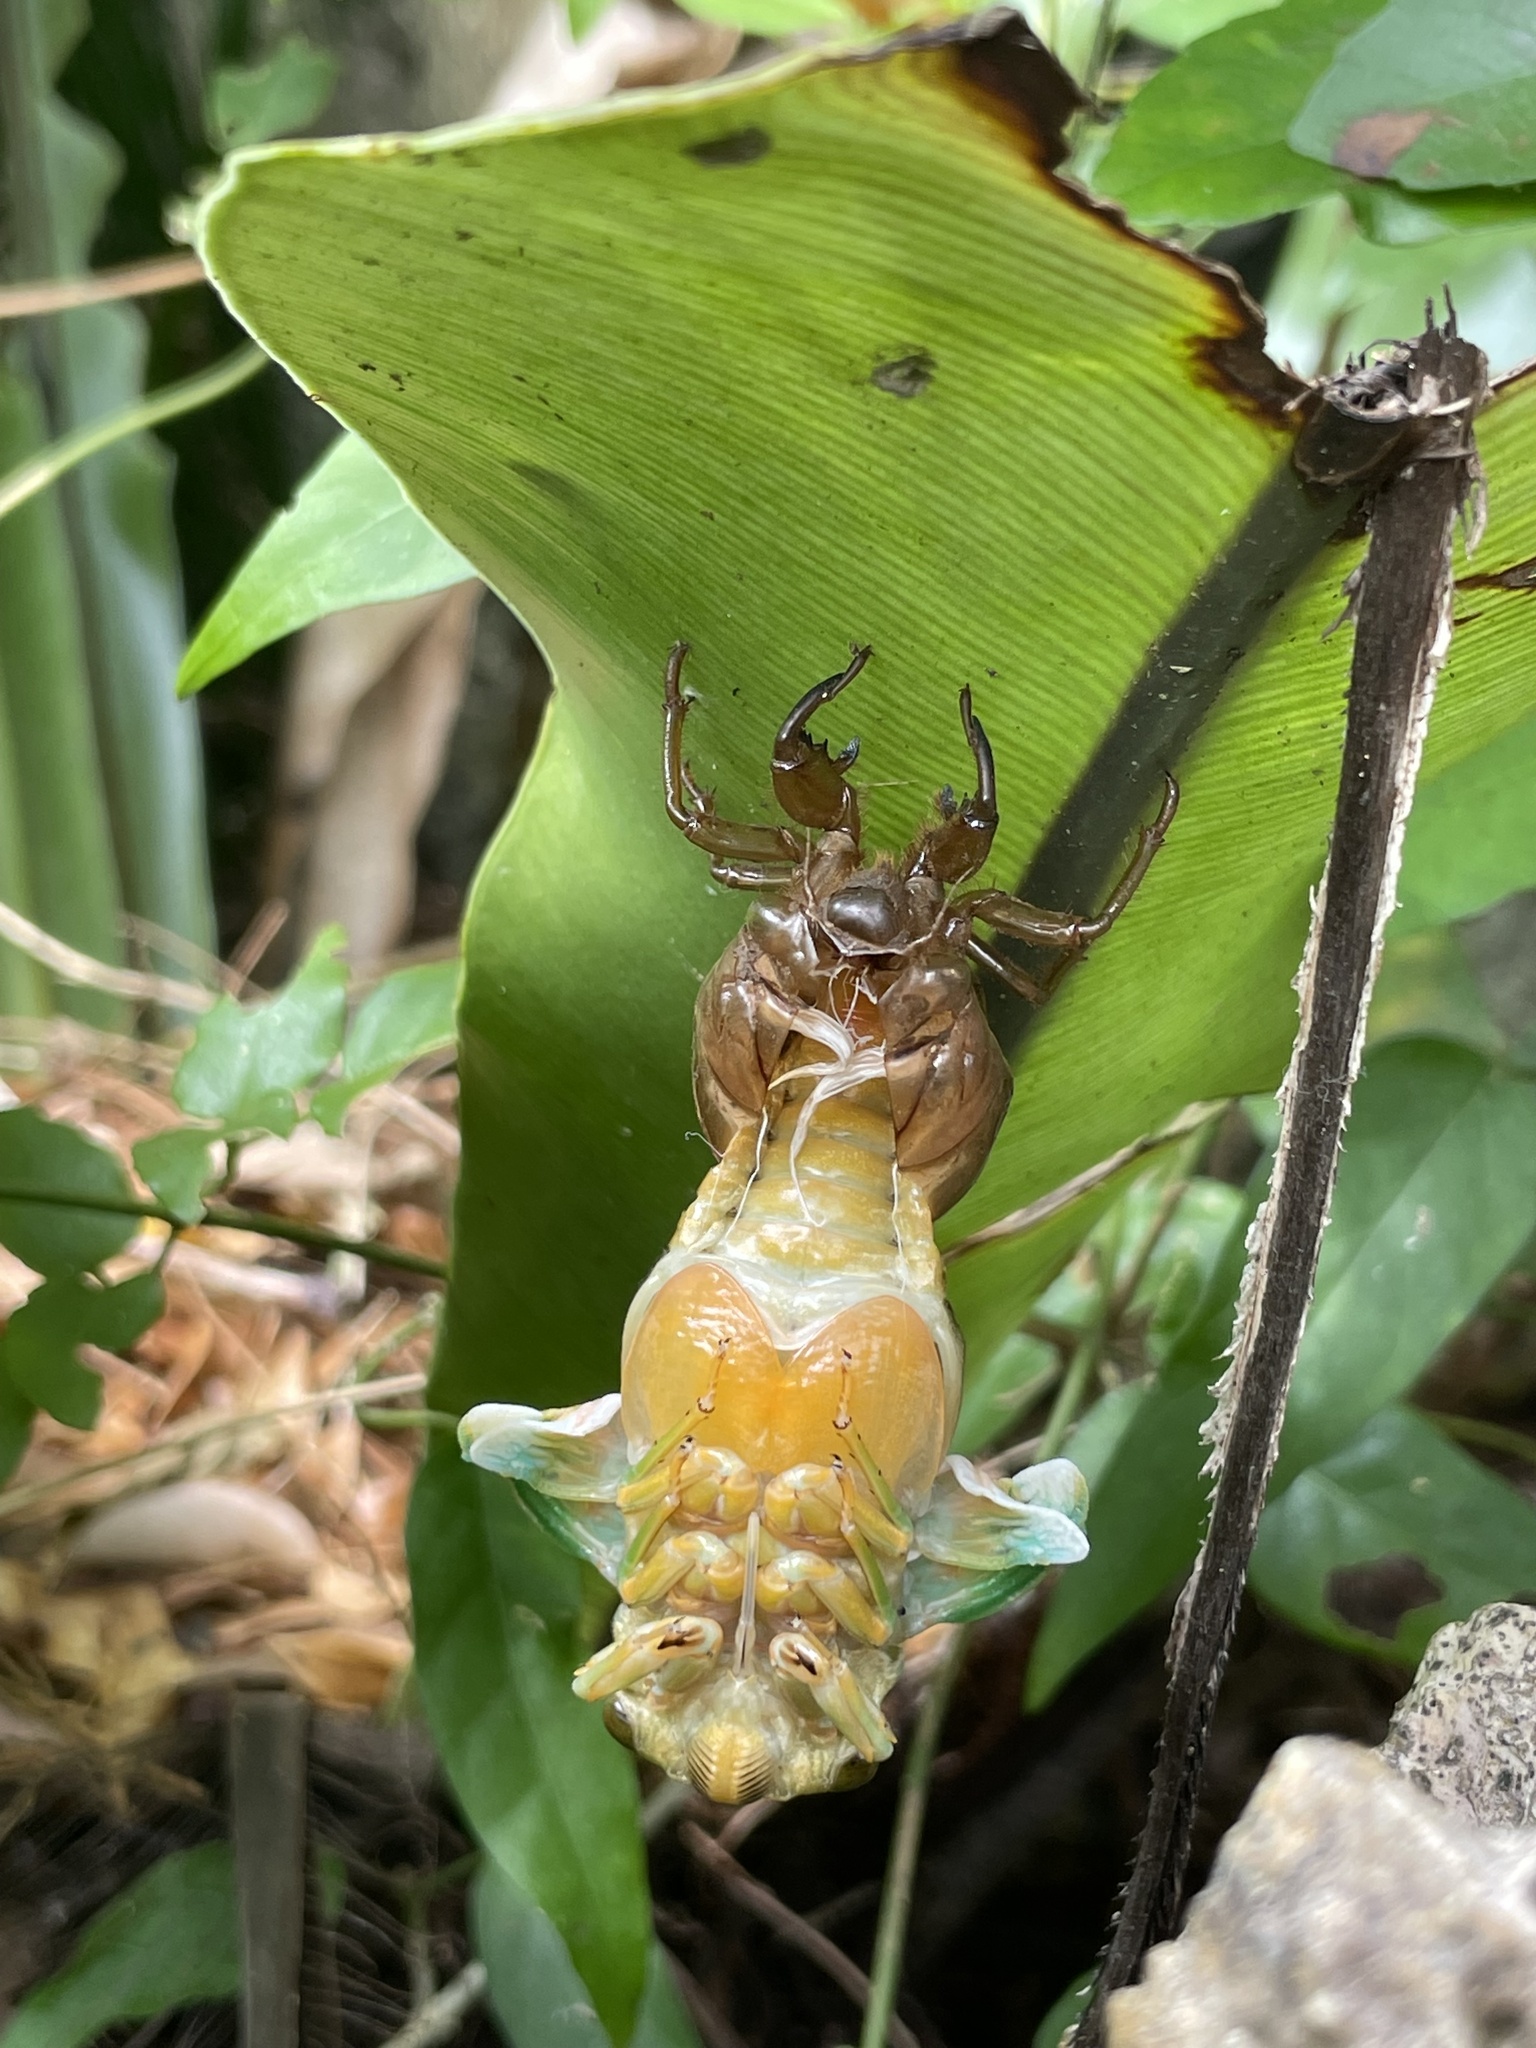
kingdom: Animalia
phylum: Arthropoda
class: Insecta
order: Hemiptera
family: Cicadidae
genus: Cryptotympana
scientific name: Cryptotympana facialis
